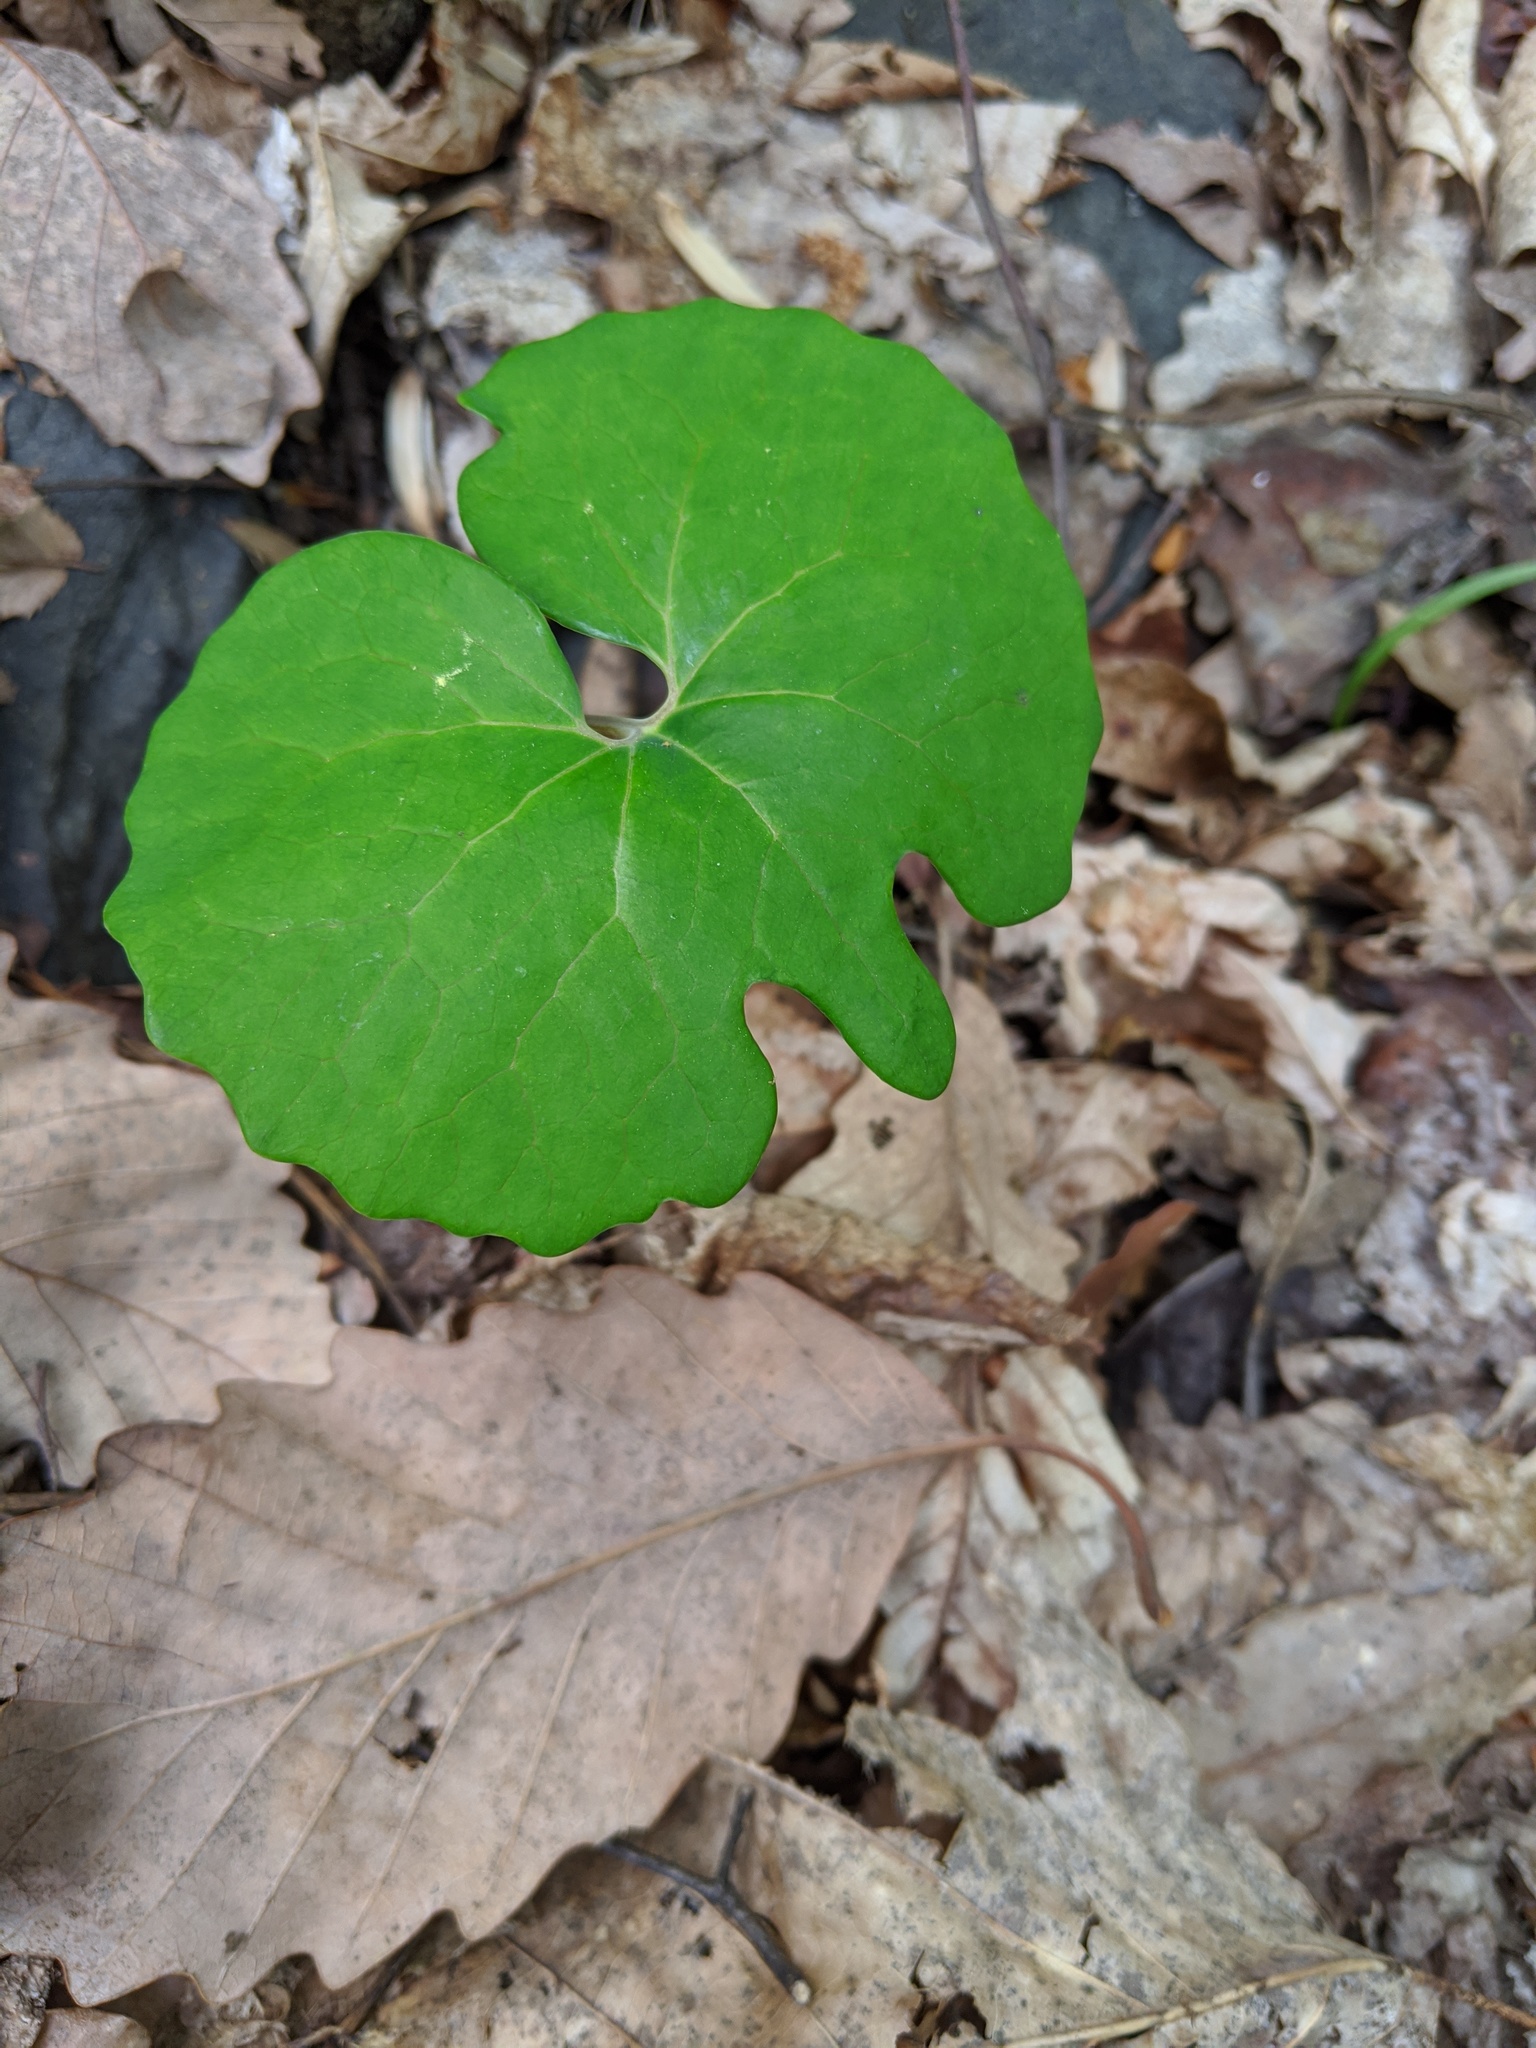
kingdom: Plantae
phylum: Tracheophyta
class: Magnoliopsida
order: Ranunculales
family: Papaveraceae
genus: Sanguinaria
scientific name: Sanguinaria canadensis
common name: Bloodroot
